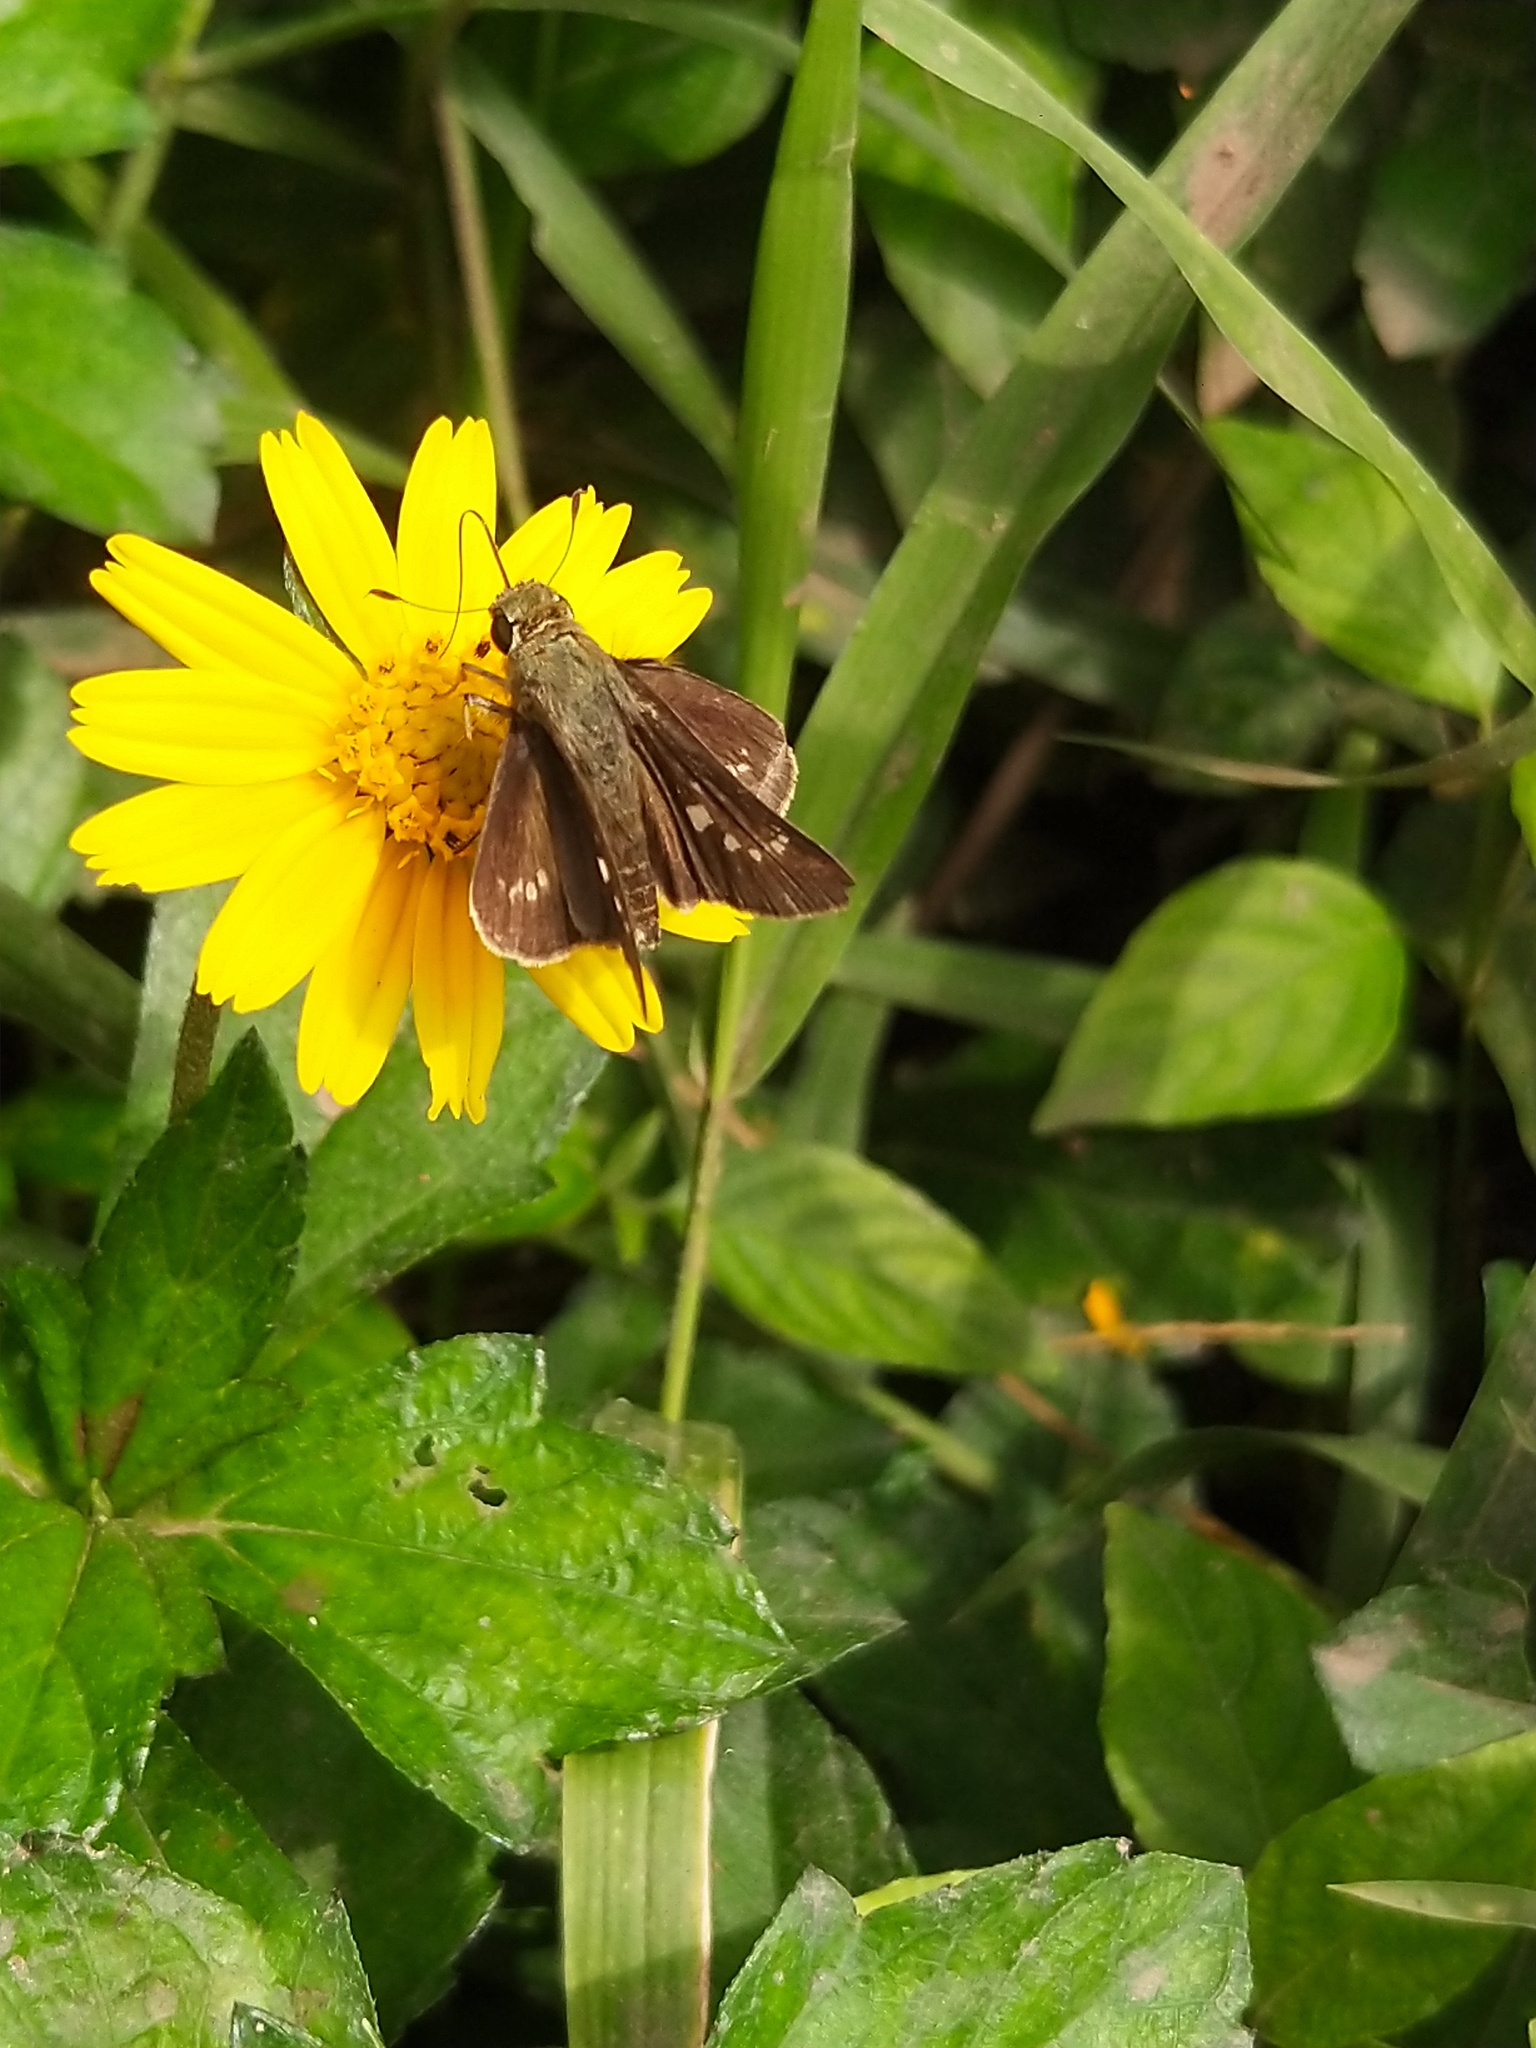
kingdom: Animalia
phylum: Arthropoda
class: Insecta
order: Lepidoptera
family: Hesperiidae
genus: Parnara
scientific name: Parnara naso
